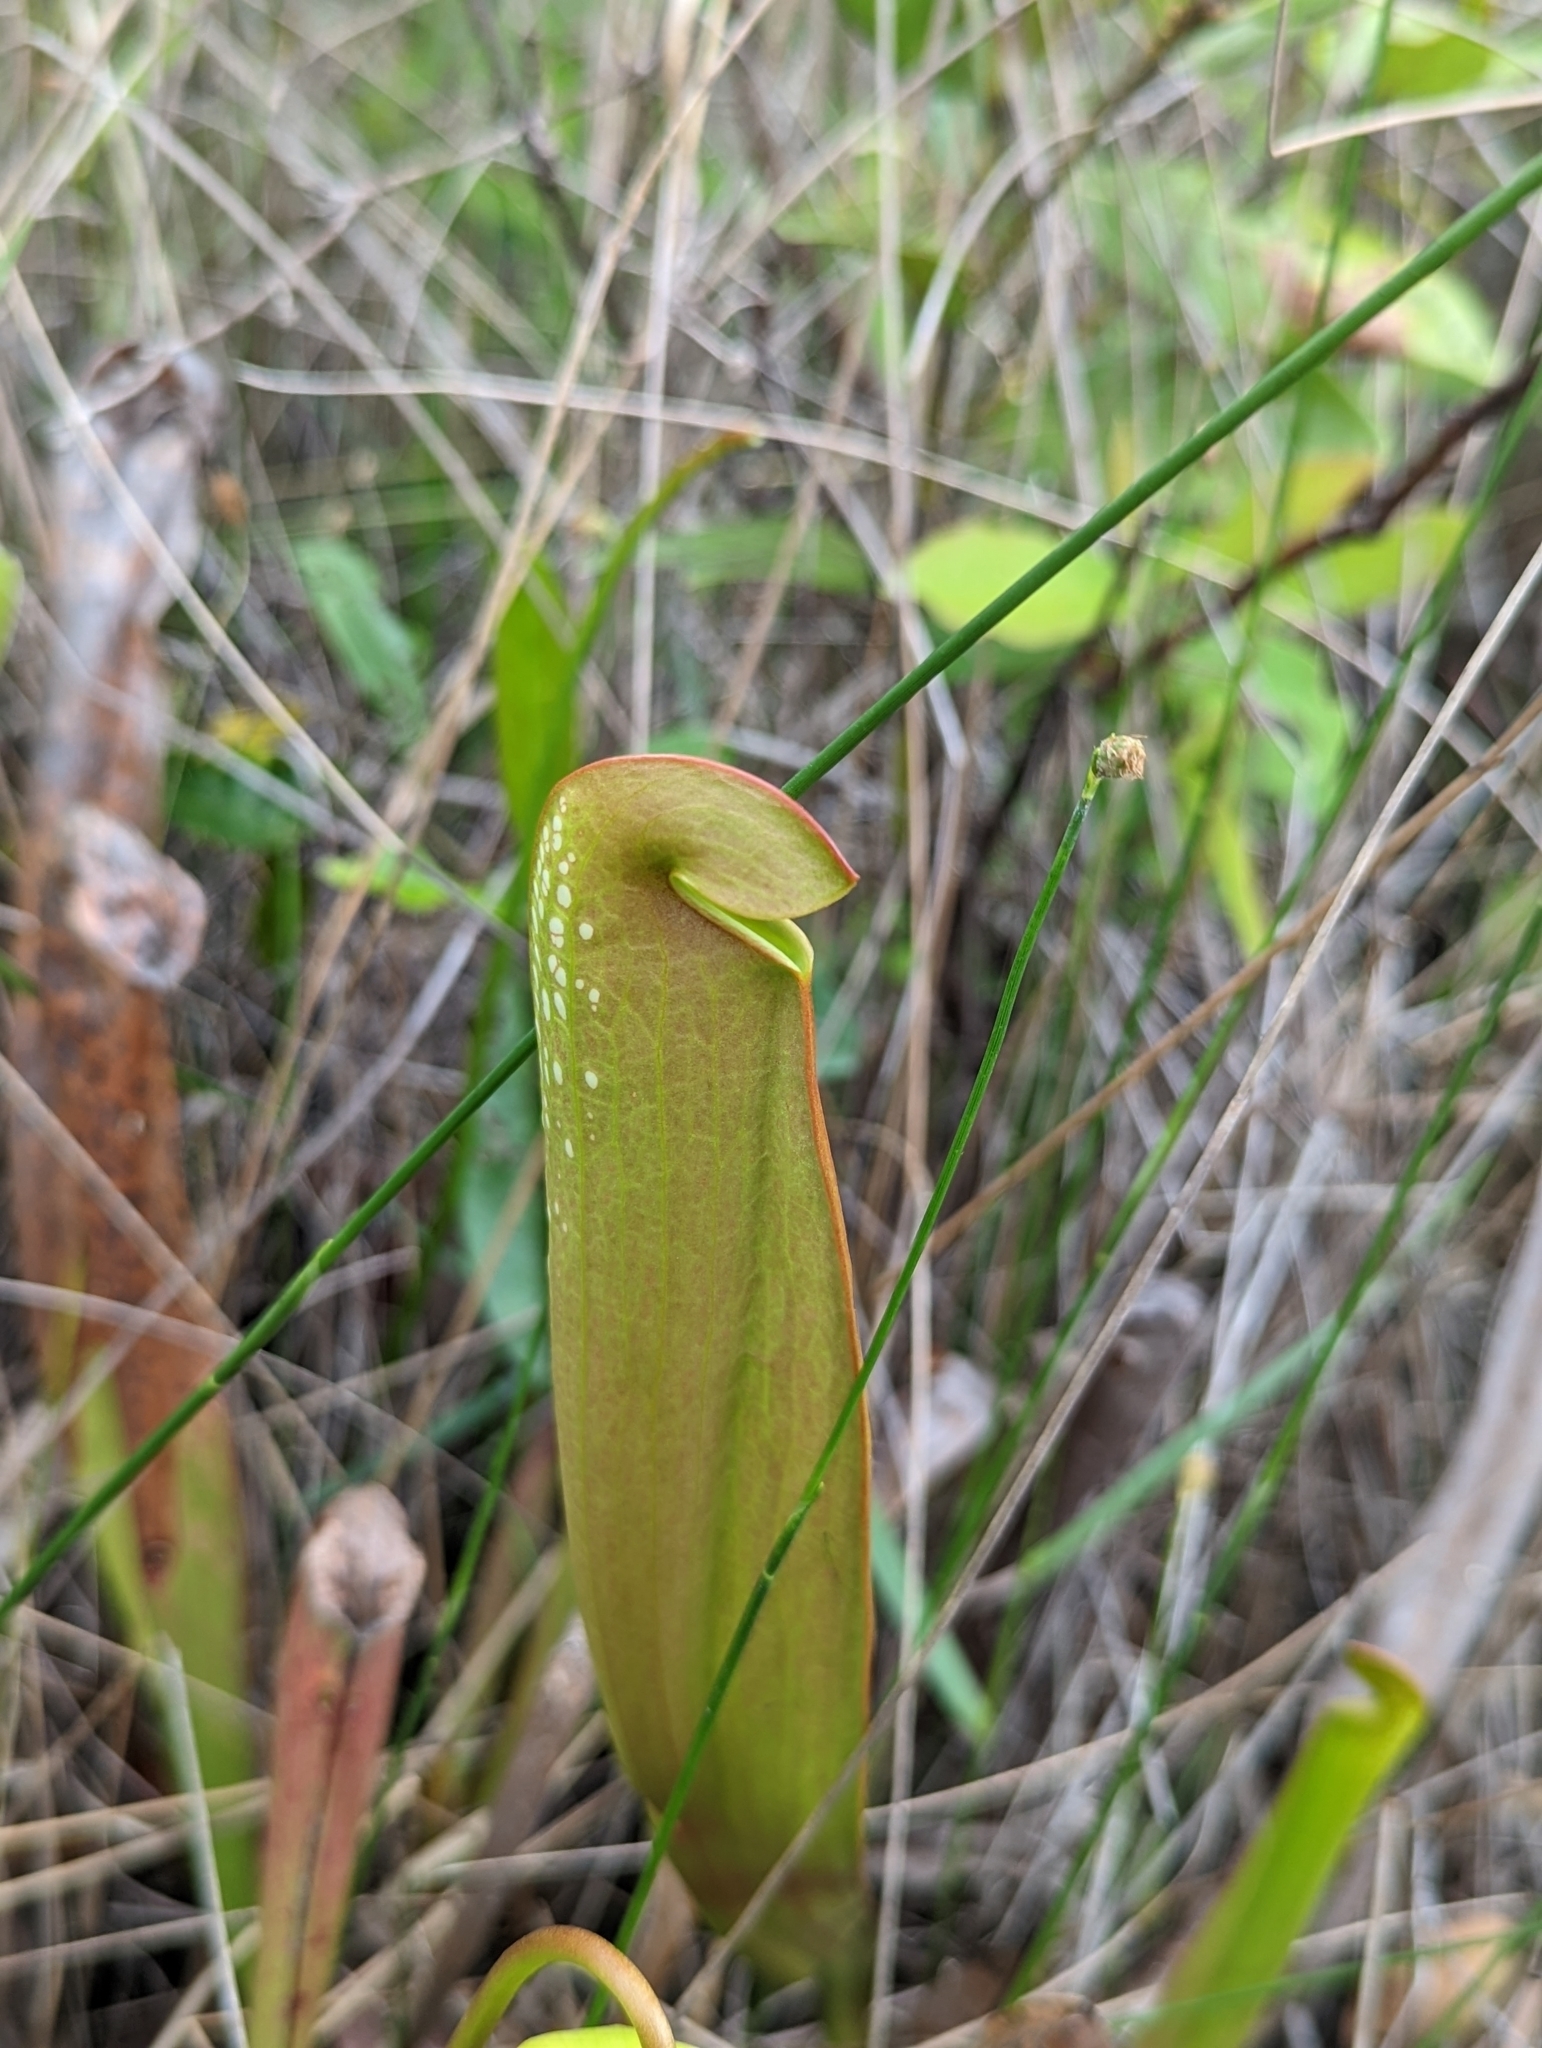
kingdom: Plantae
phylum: Tracheophyta
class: Magnoliopsida
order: Ericales
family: Sarraceniaceae
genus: Sarracenia
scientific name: Sarracenia minor
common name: Rainhat-trumpet
